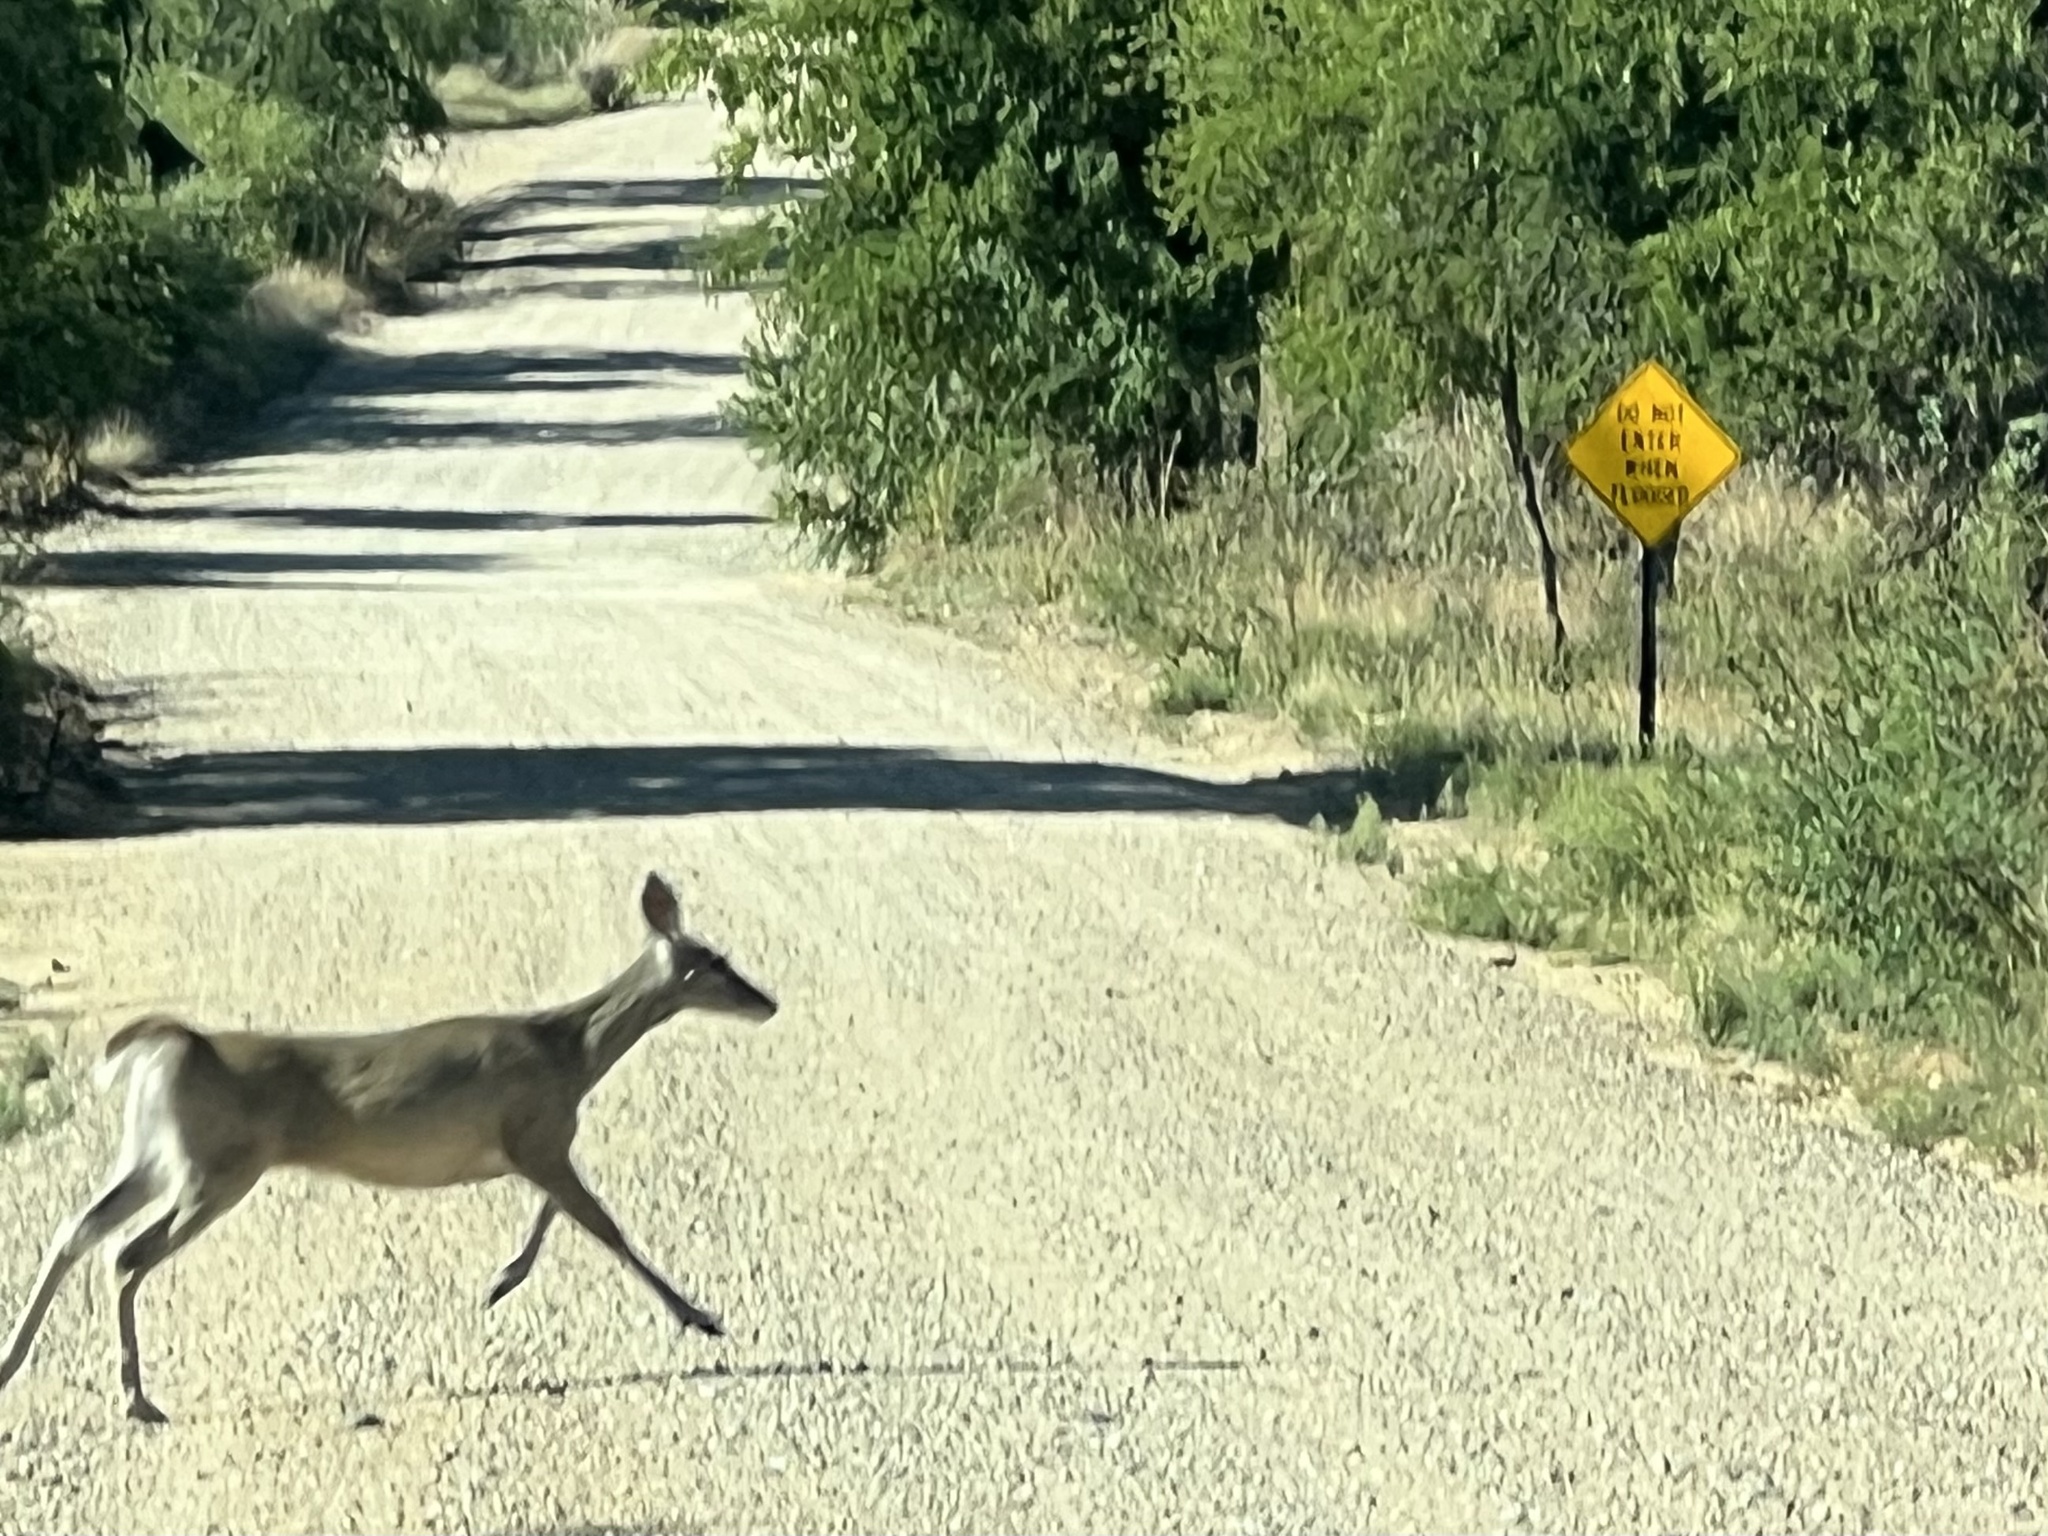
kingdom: Animalia
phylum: Chordata
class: Mammalia
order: Artiodactyla
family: Cervidae
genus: Odocoileus
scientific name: Odocoileus virginianus
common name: White-tailed deer
